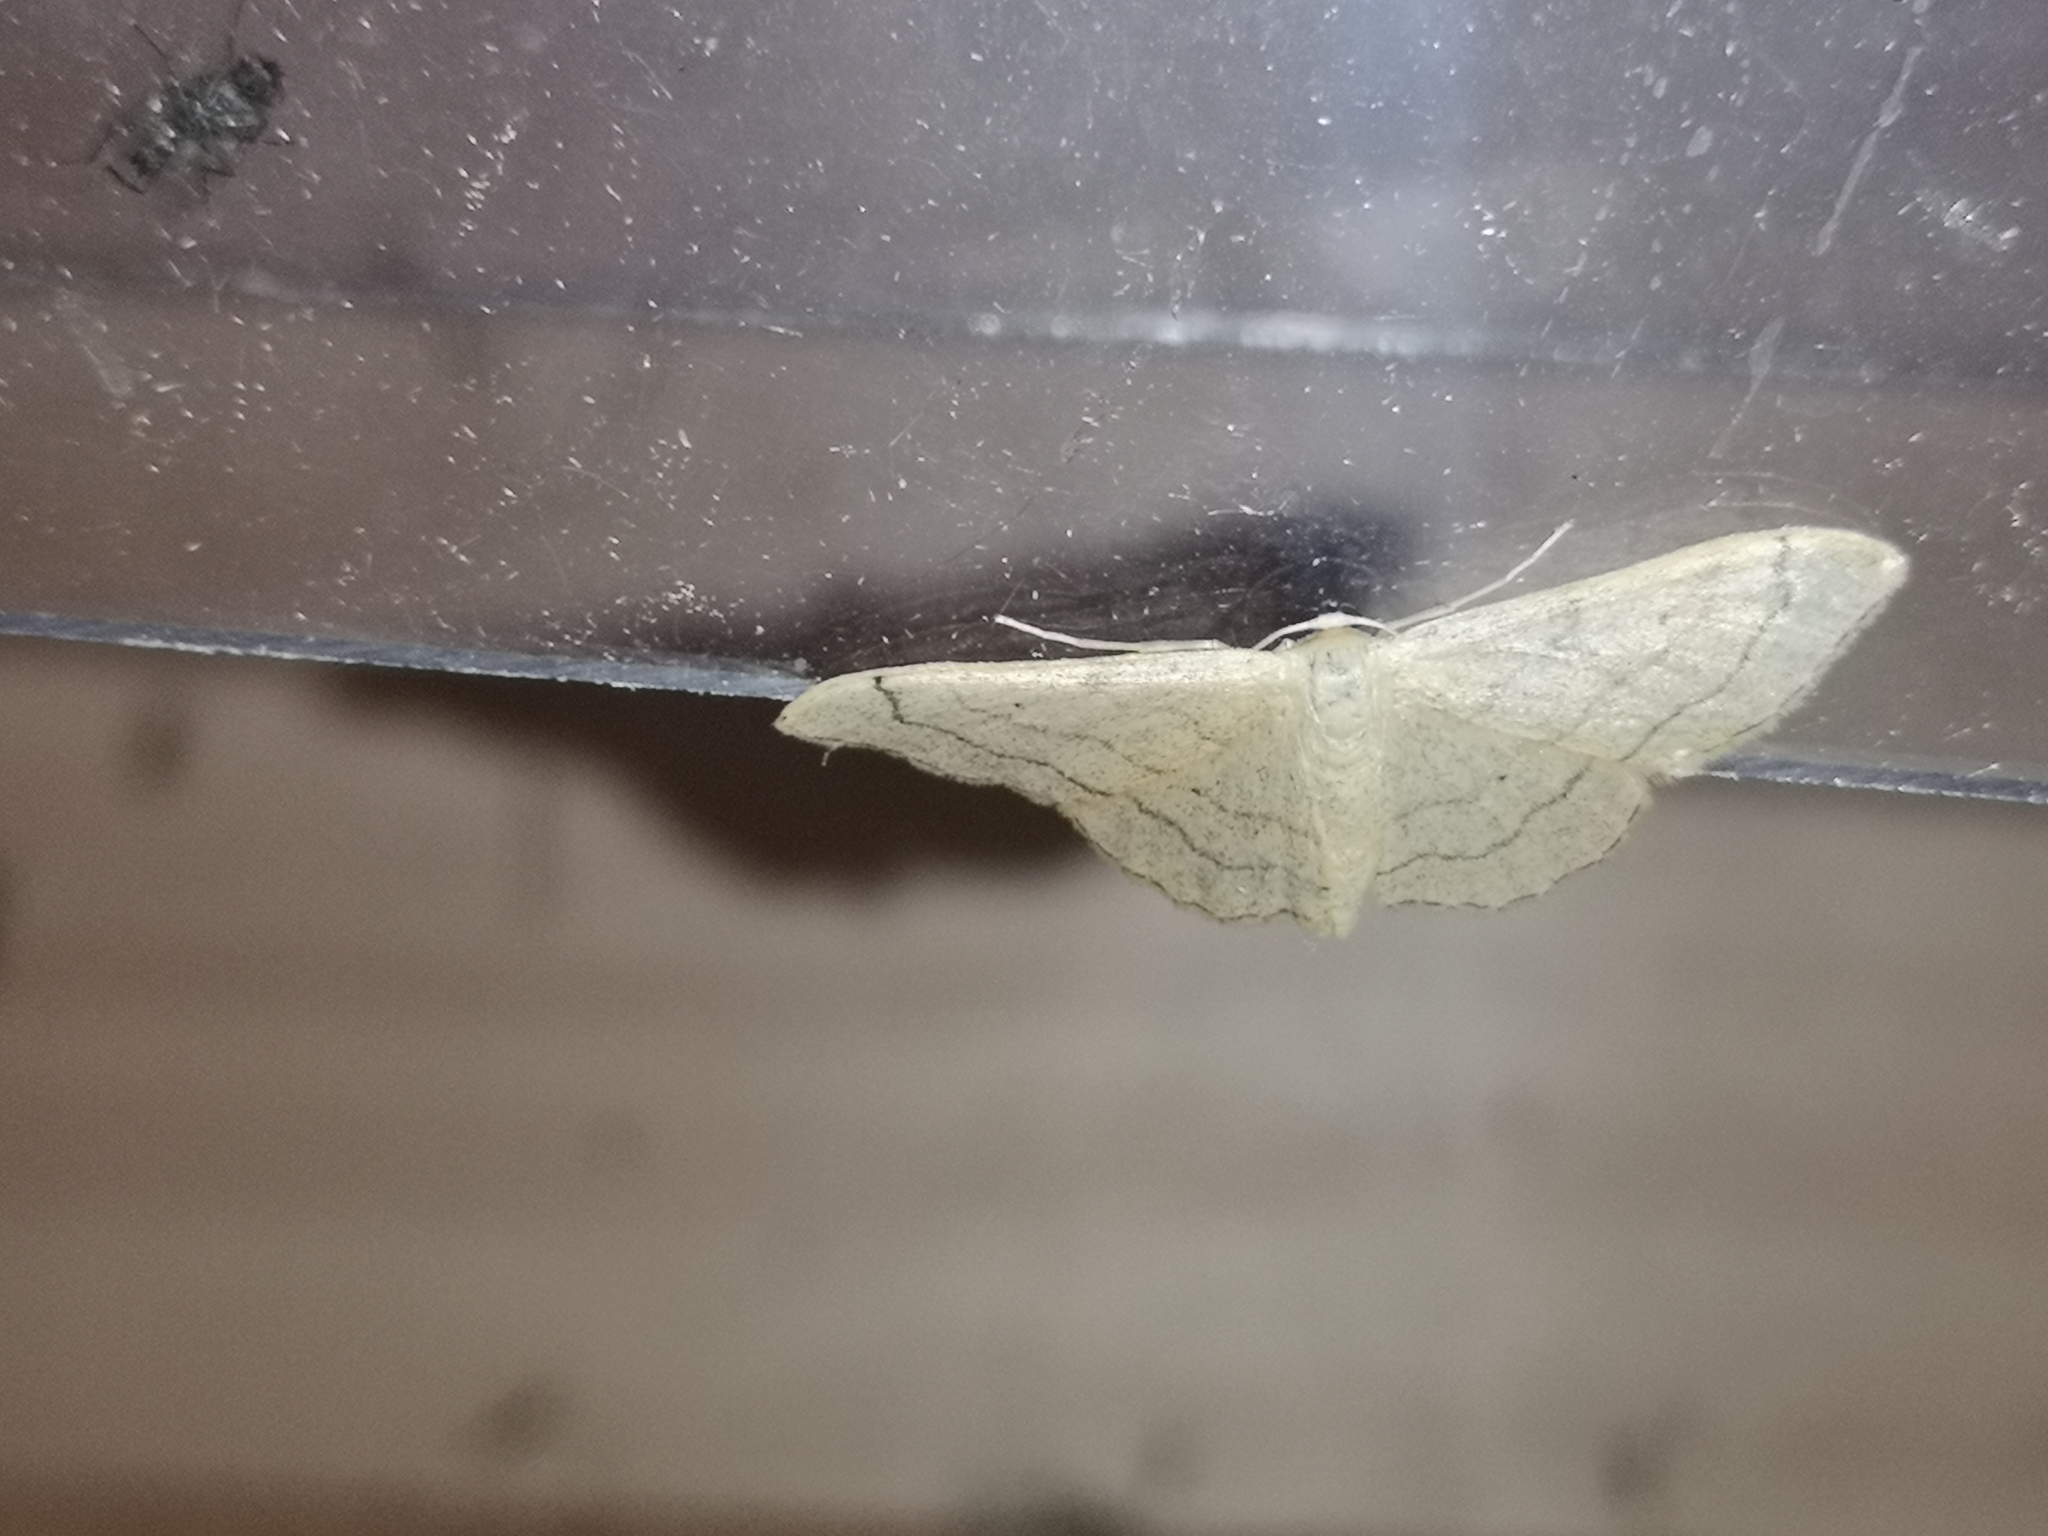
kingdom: Animalia
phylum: Arthropoda
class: Insecta
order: Lepidoptera
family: Geometridae
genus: Idaea
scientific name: Idaea aversata
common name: Riband wave
